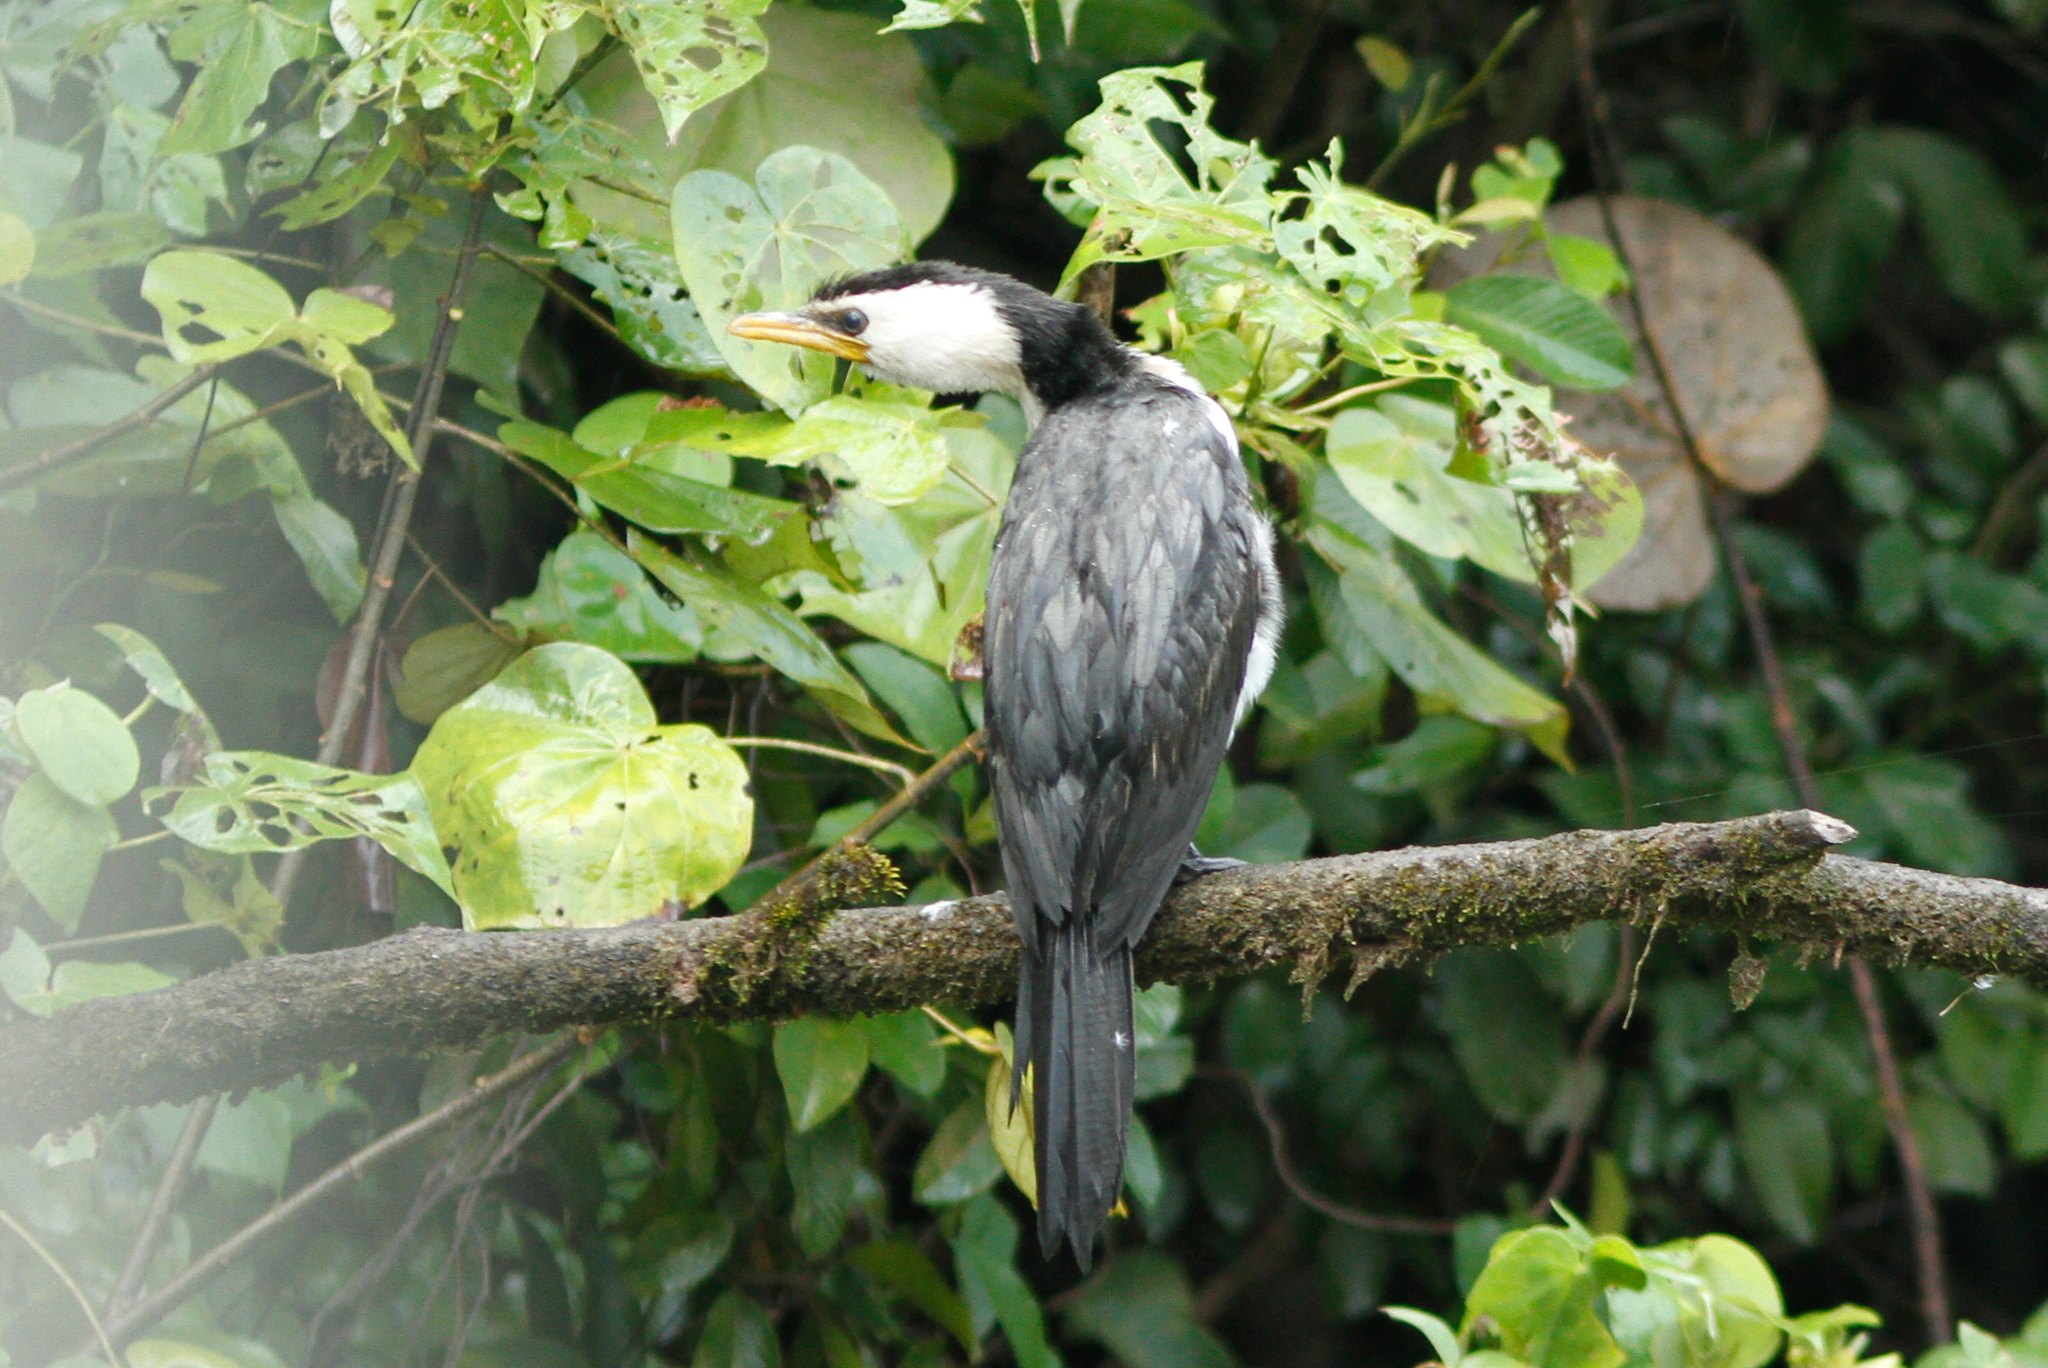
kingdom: Animalia
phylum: Chordata
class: Aves
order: Suliformes
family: Phalacrocoracidae
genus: Microcarbo
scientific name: Microcarbo melanoleucos
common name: Little pied cormorant
